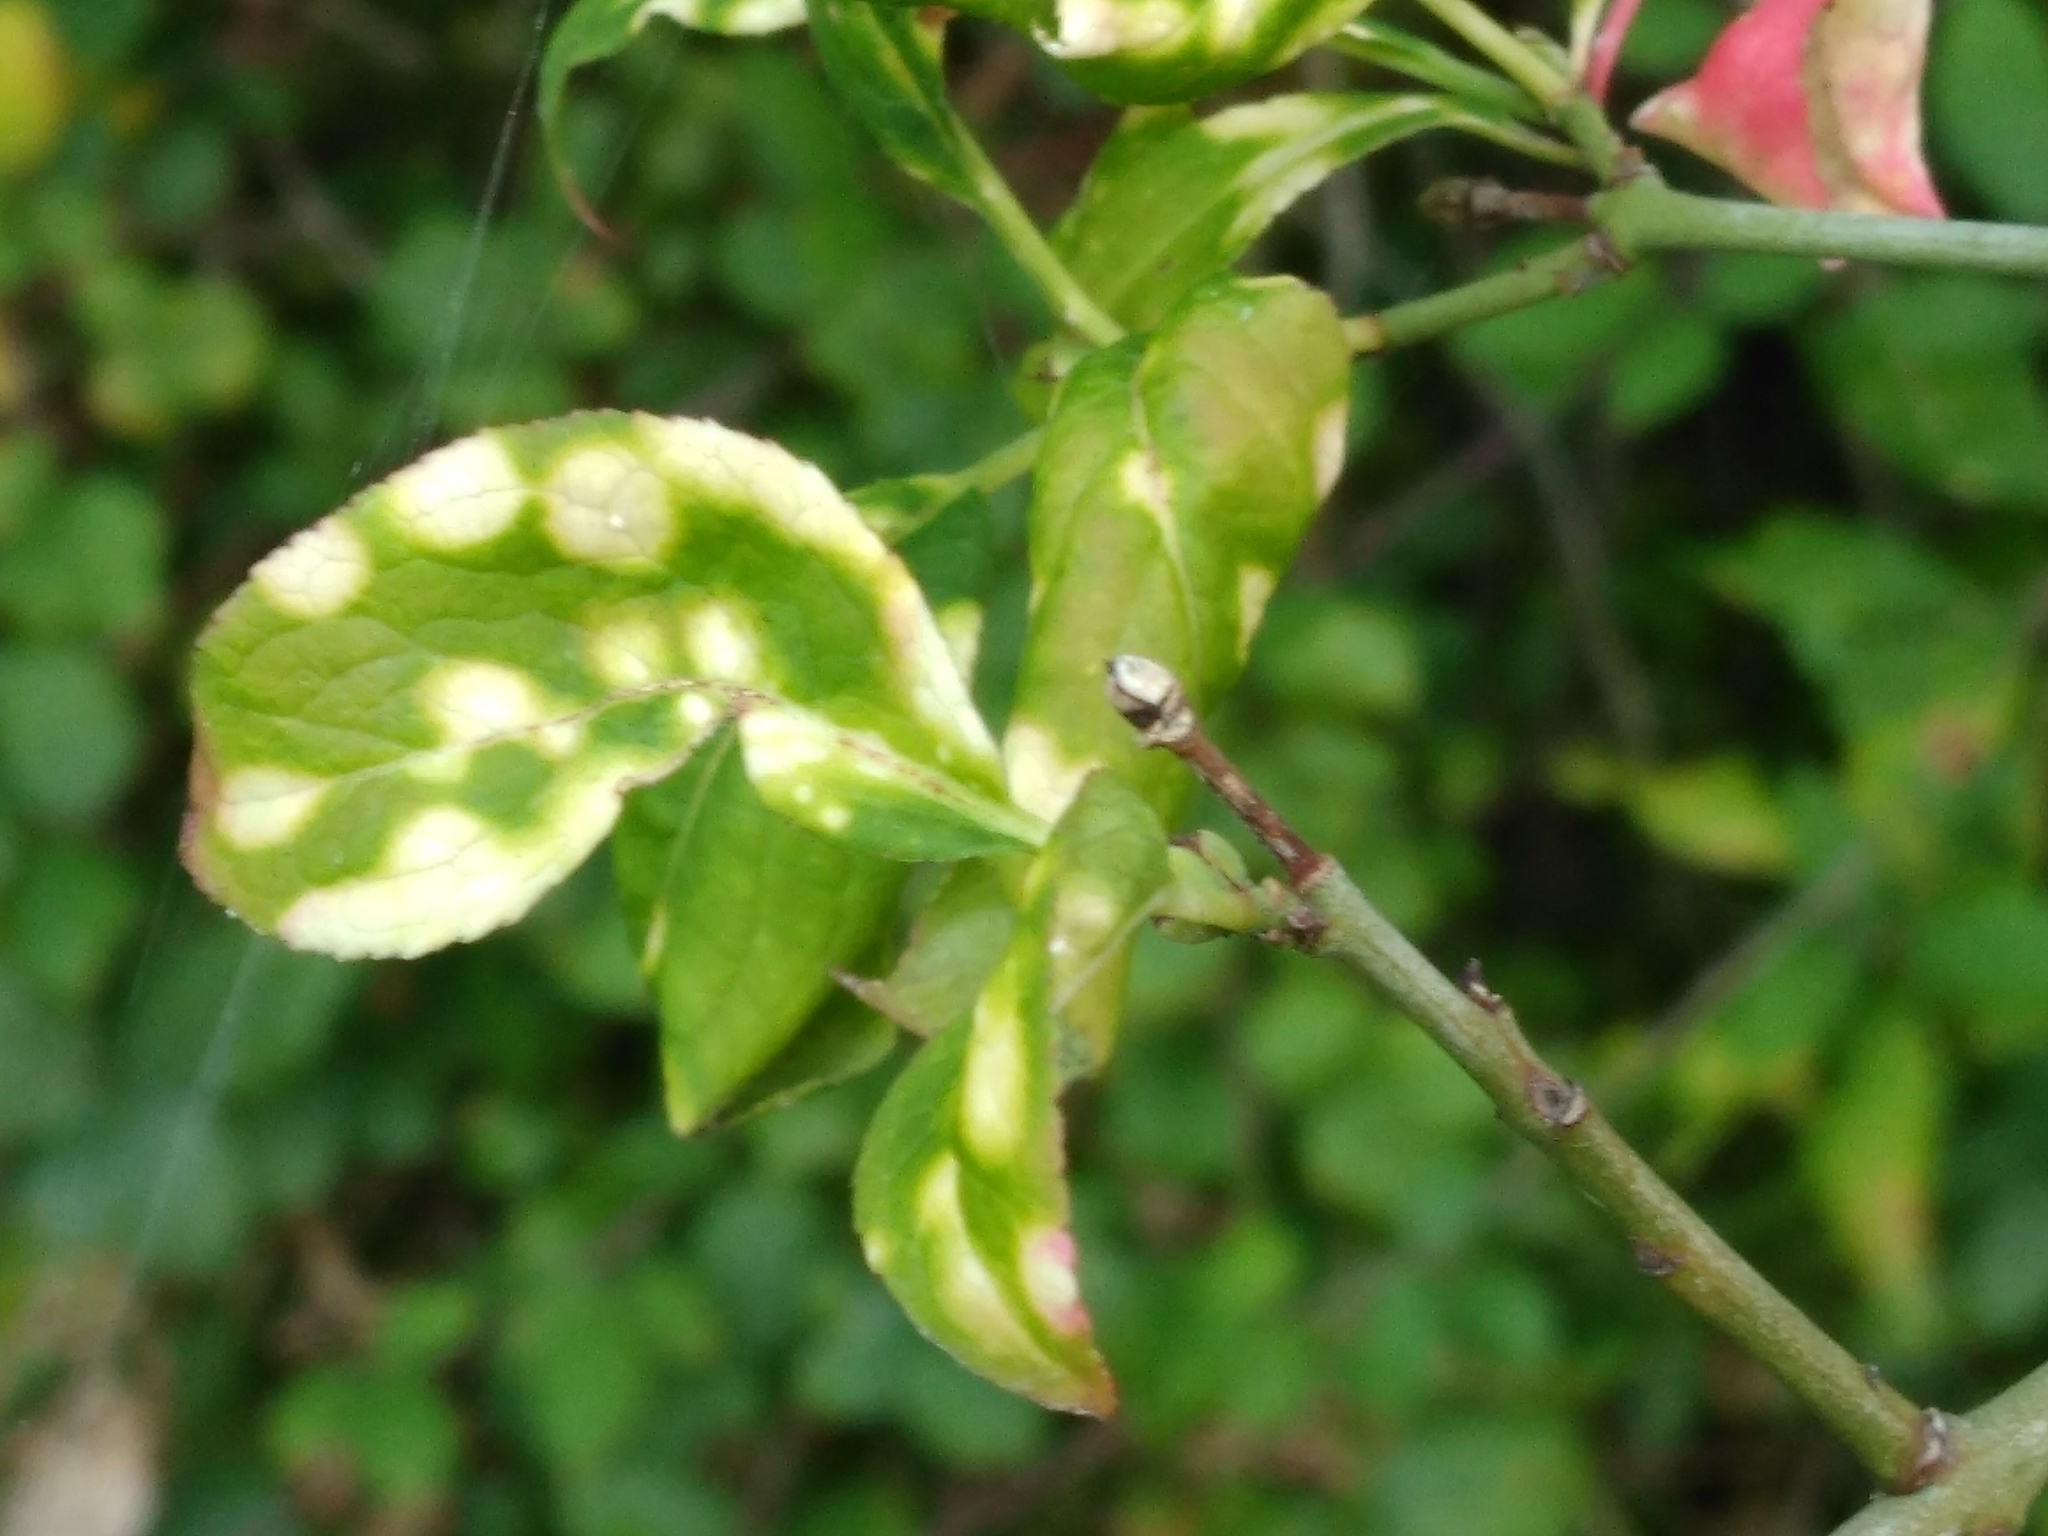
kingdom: Plantae
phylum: Tracheophyta
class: Magnoliopsida
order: Celastrales
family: Celastraceae
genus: Euonymus
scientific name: Euonymus europaeus
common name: Spindle
